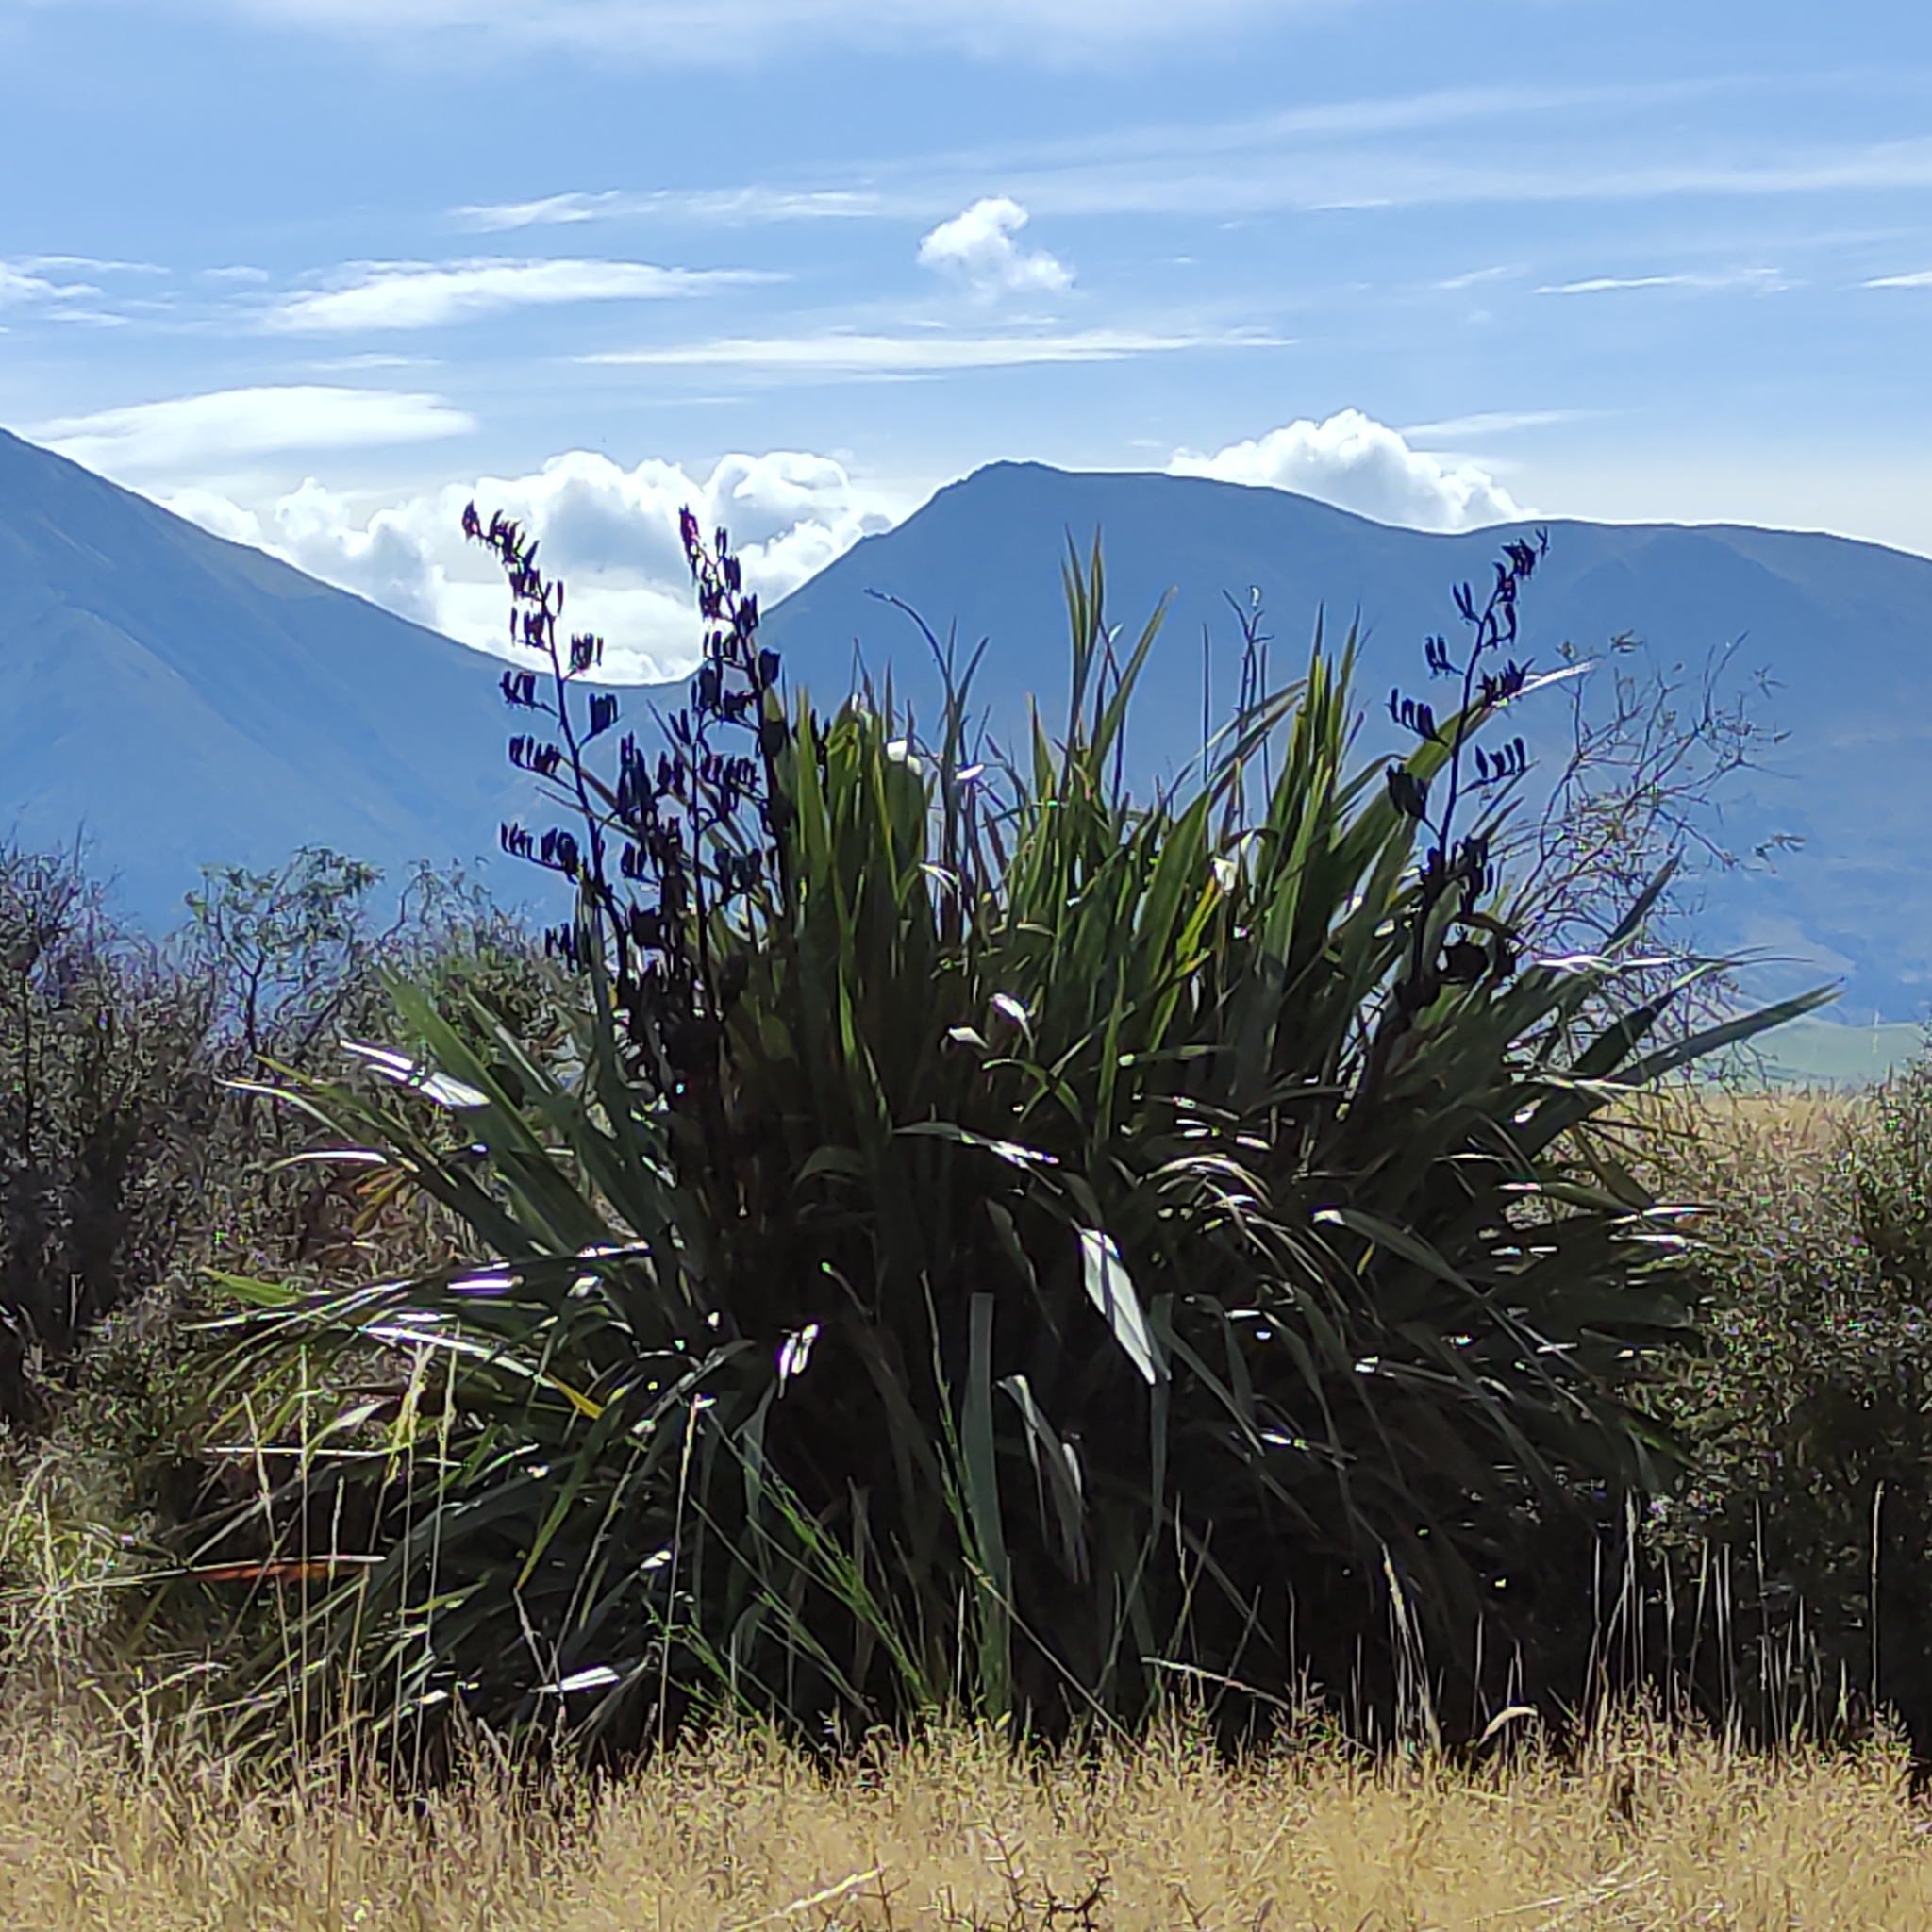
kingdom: Plantae
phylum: Tracheophyta
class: Liliopsida
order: Asparagales
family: Asphodelaceae
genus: Phormium
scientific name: Phormium tenax
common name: New zealand flax
